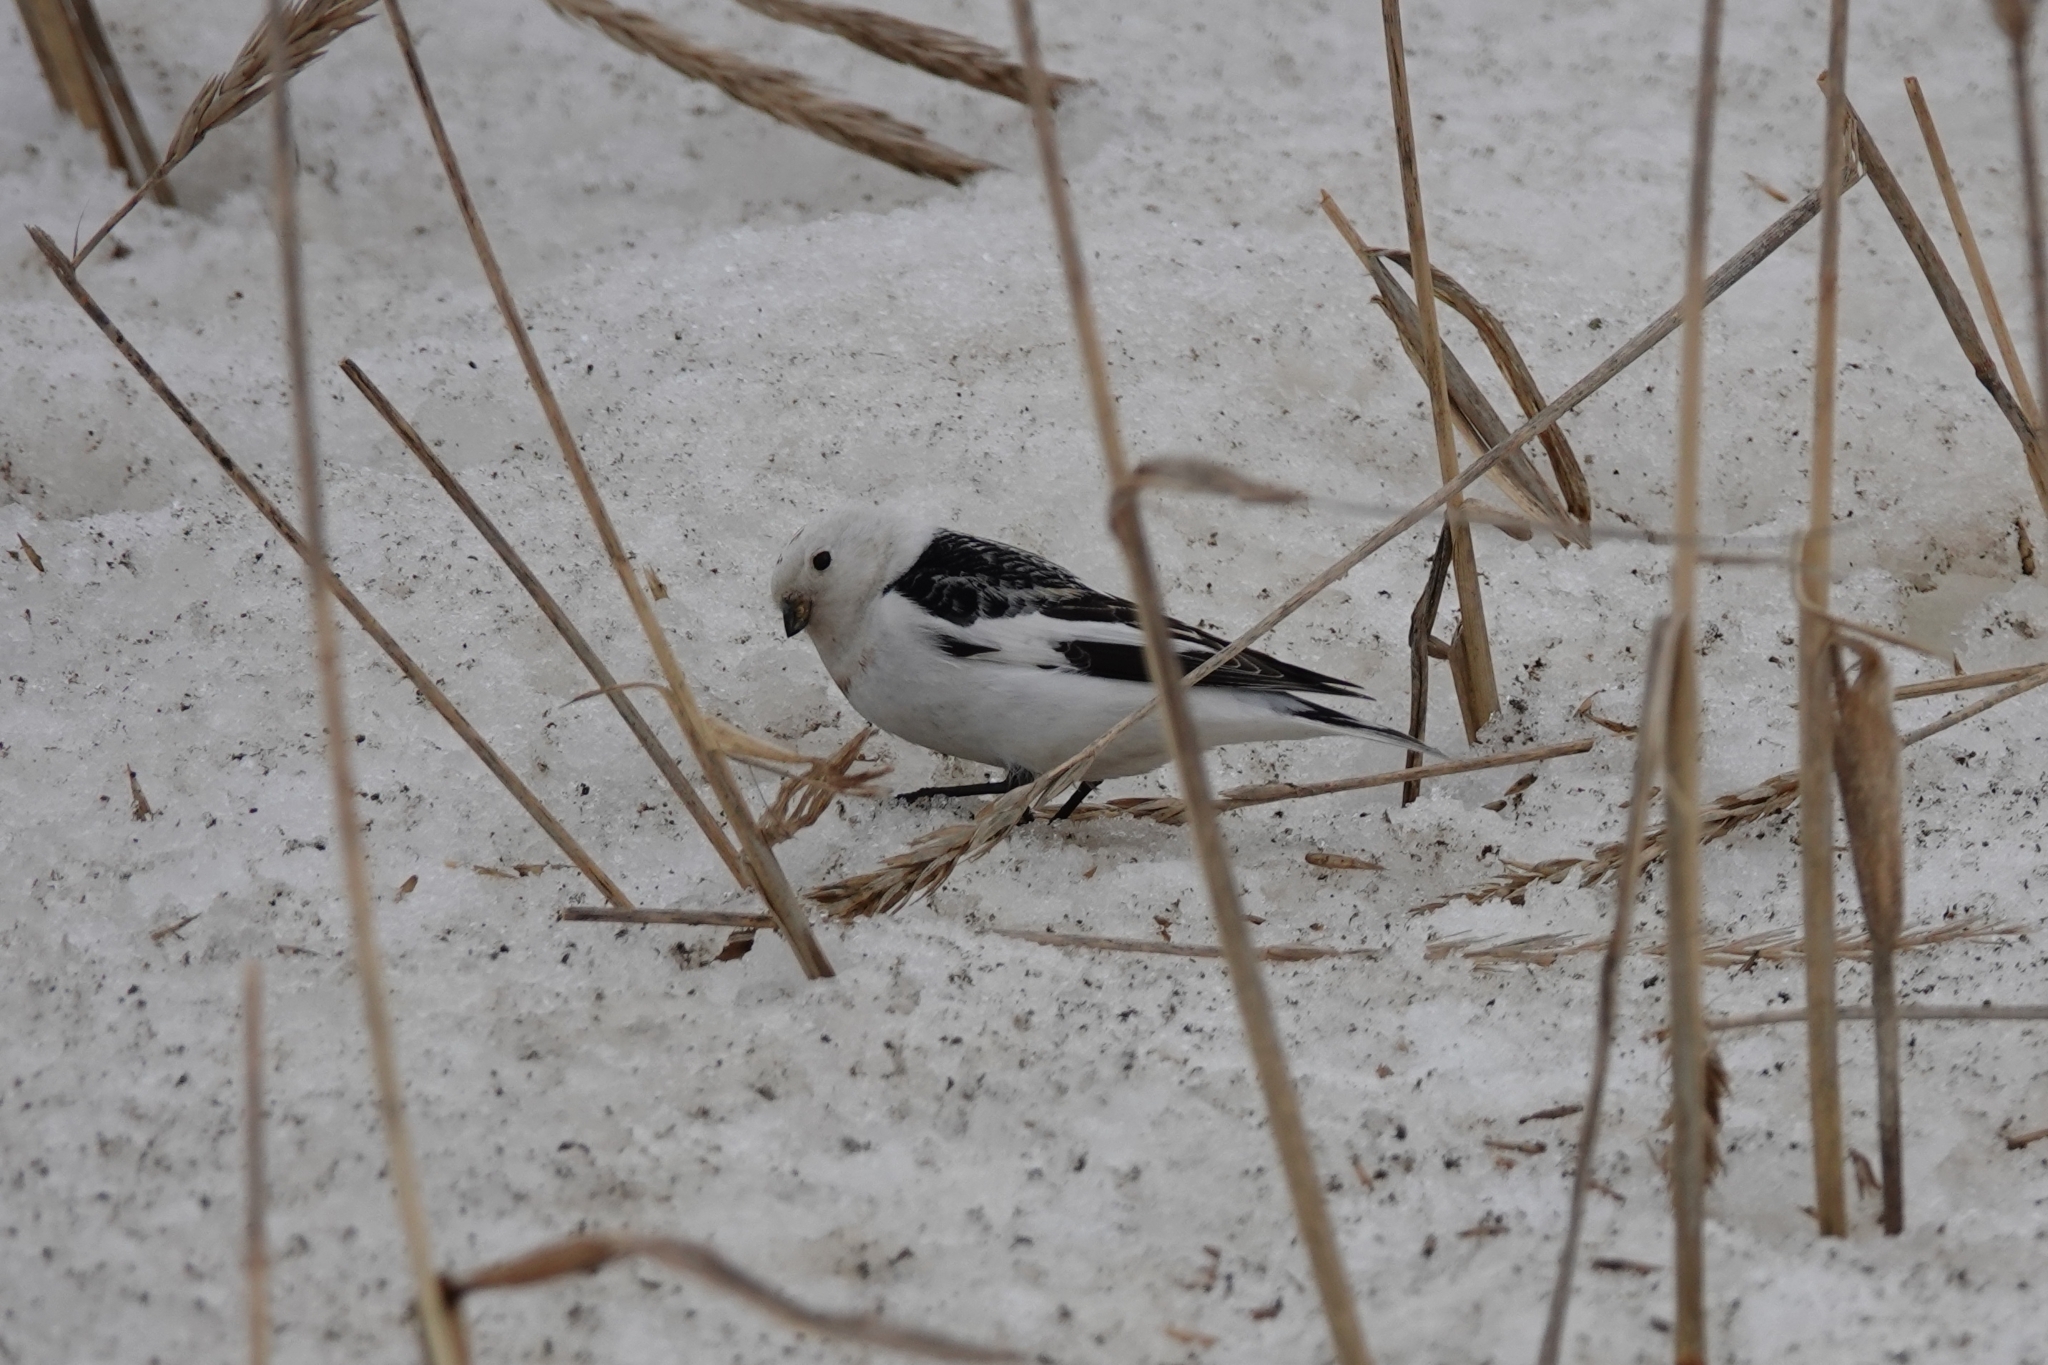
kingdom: Animalia
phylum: Chordata
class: Aves
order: Passeriformes
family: Calcariidae
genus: Plectrophenax
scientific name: Plectrophenax nivalis
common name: Snow bunting
